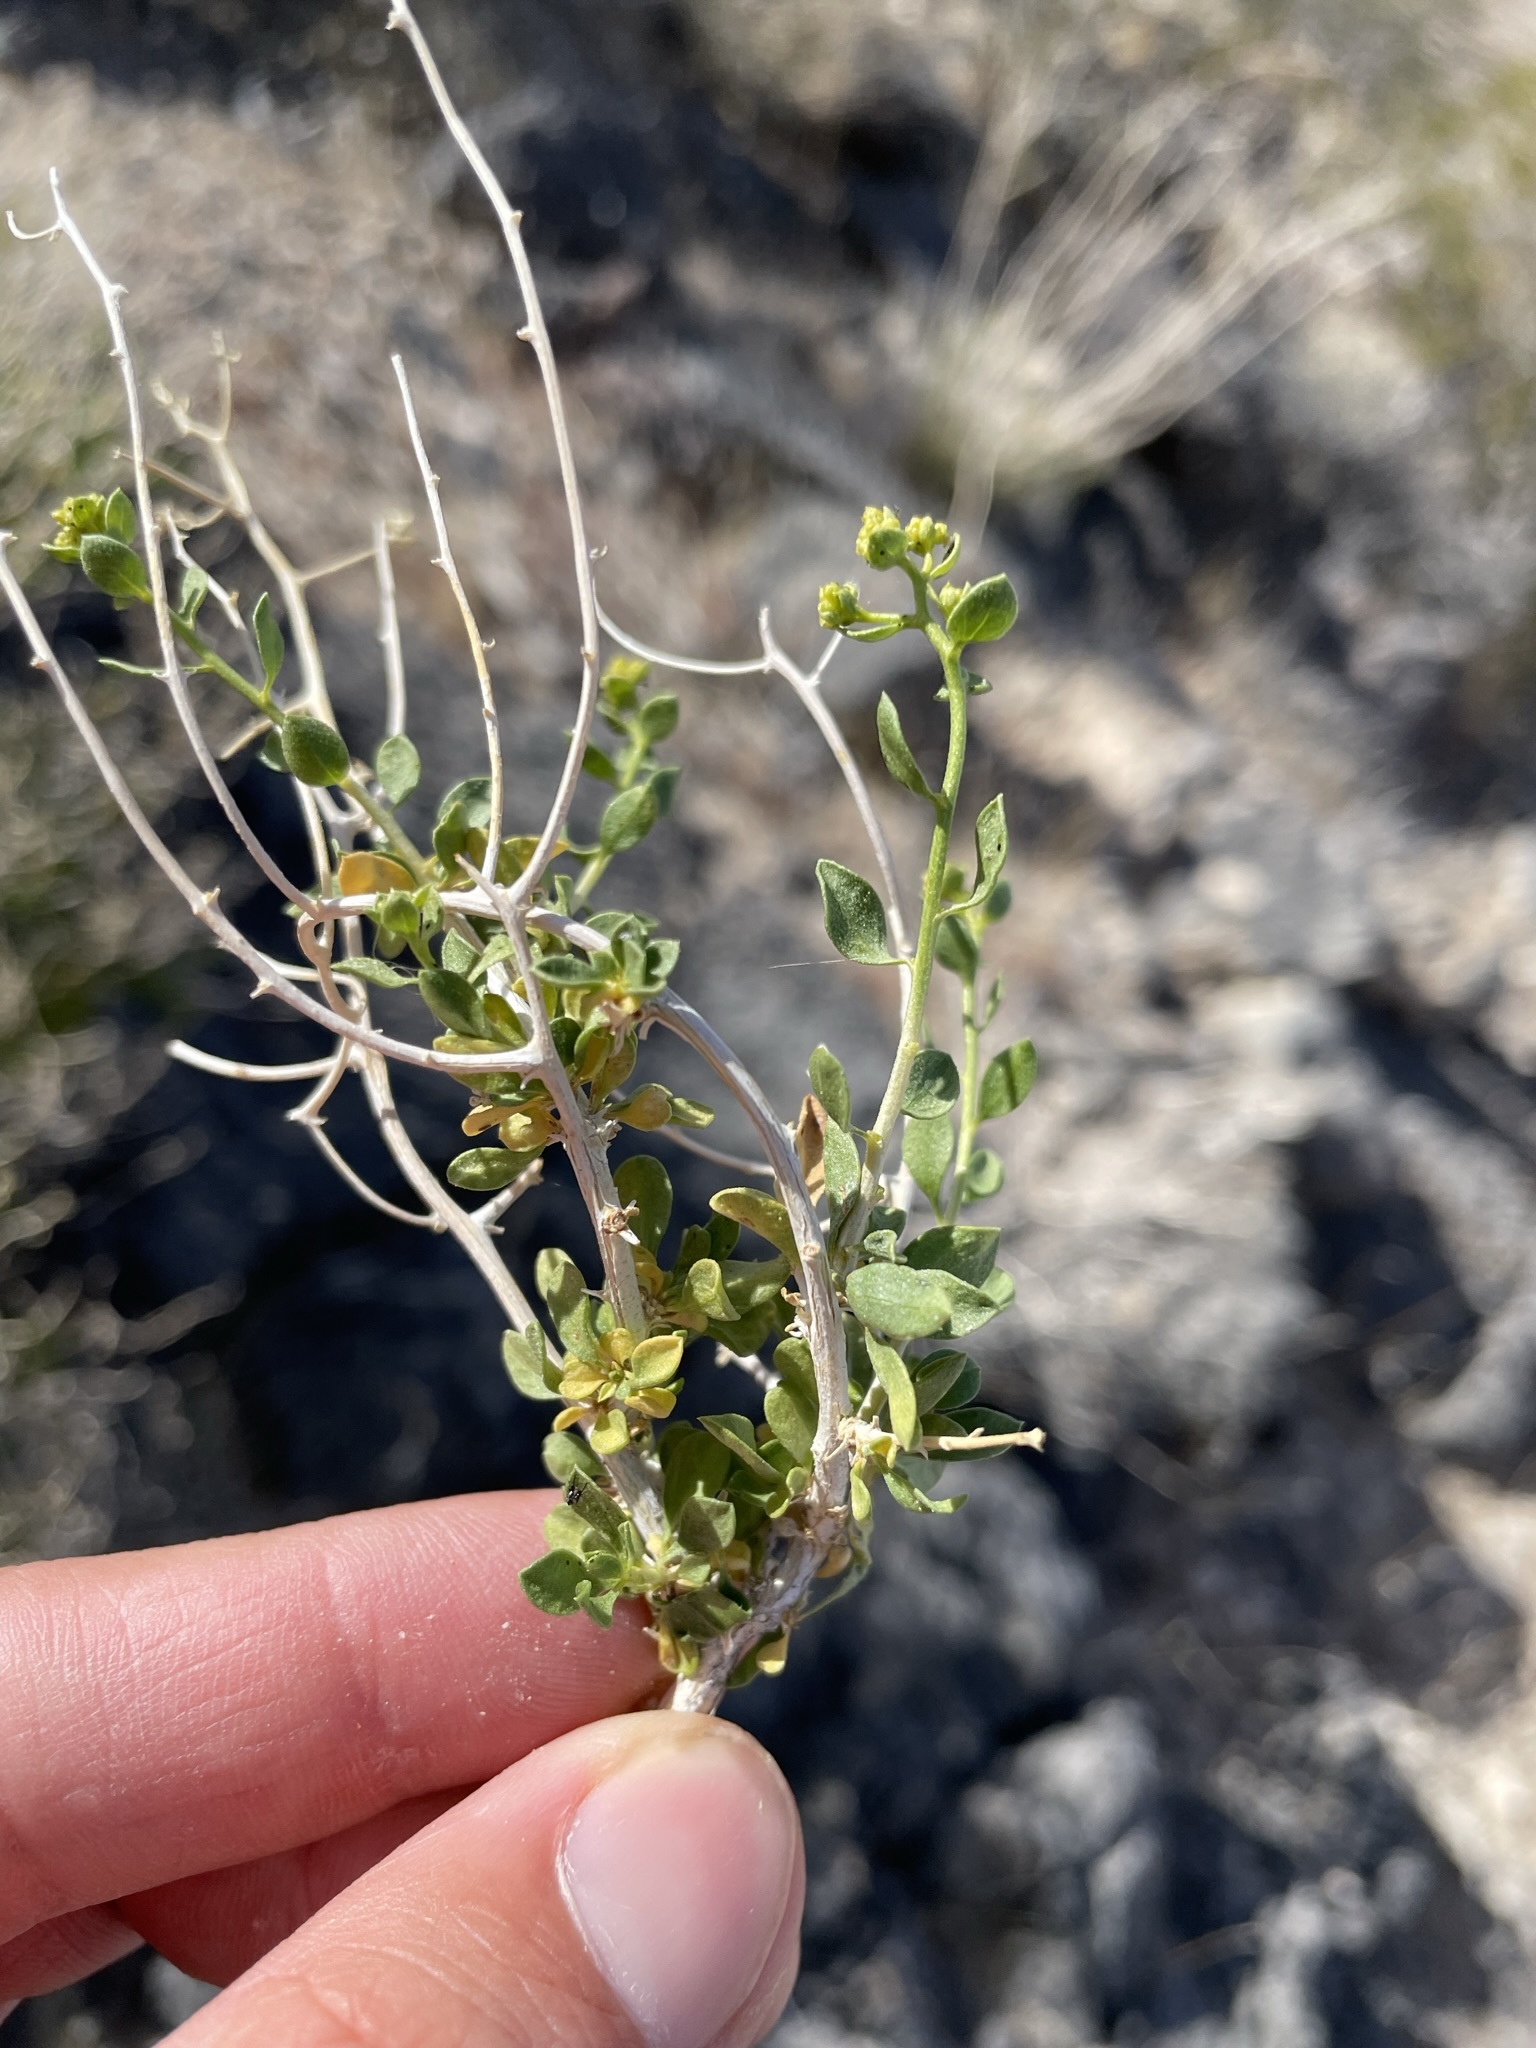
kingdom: Plantae
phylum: Tracheophyta
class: Magnoliopsida
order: Asterales
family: Asteraceae
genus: Amphipappus
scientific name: Amphipappus fremontii
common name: Fremont's chaffbush
